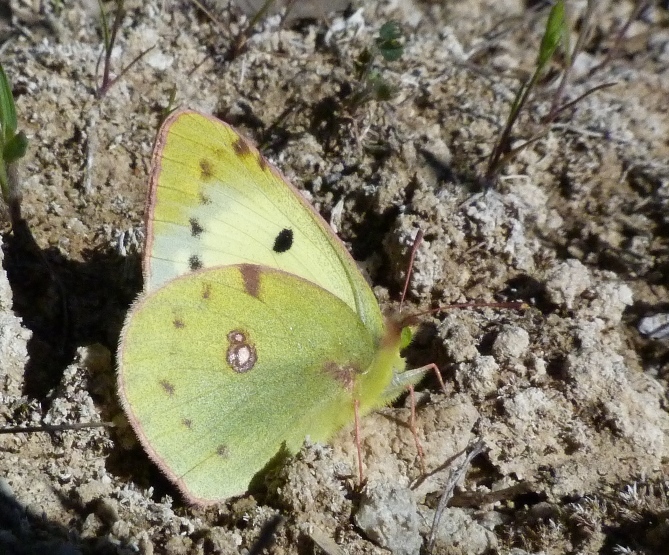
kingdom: Animalia
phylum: Arthropoda
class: Insecta
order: Lepidoptera
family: Pieridae
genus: Colias
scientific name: Colias alfacariensis
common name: Berger's clouded yellow
